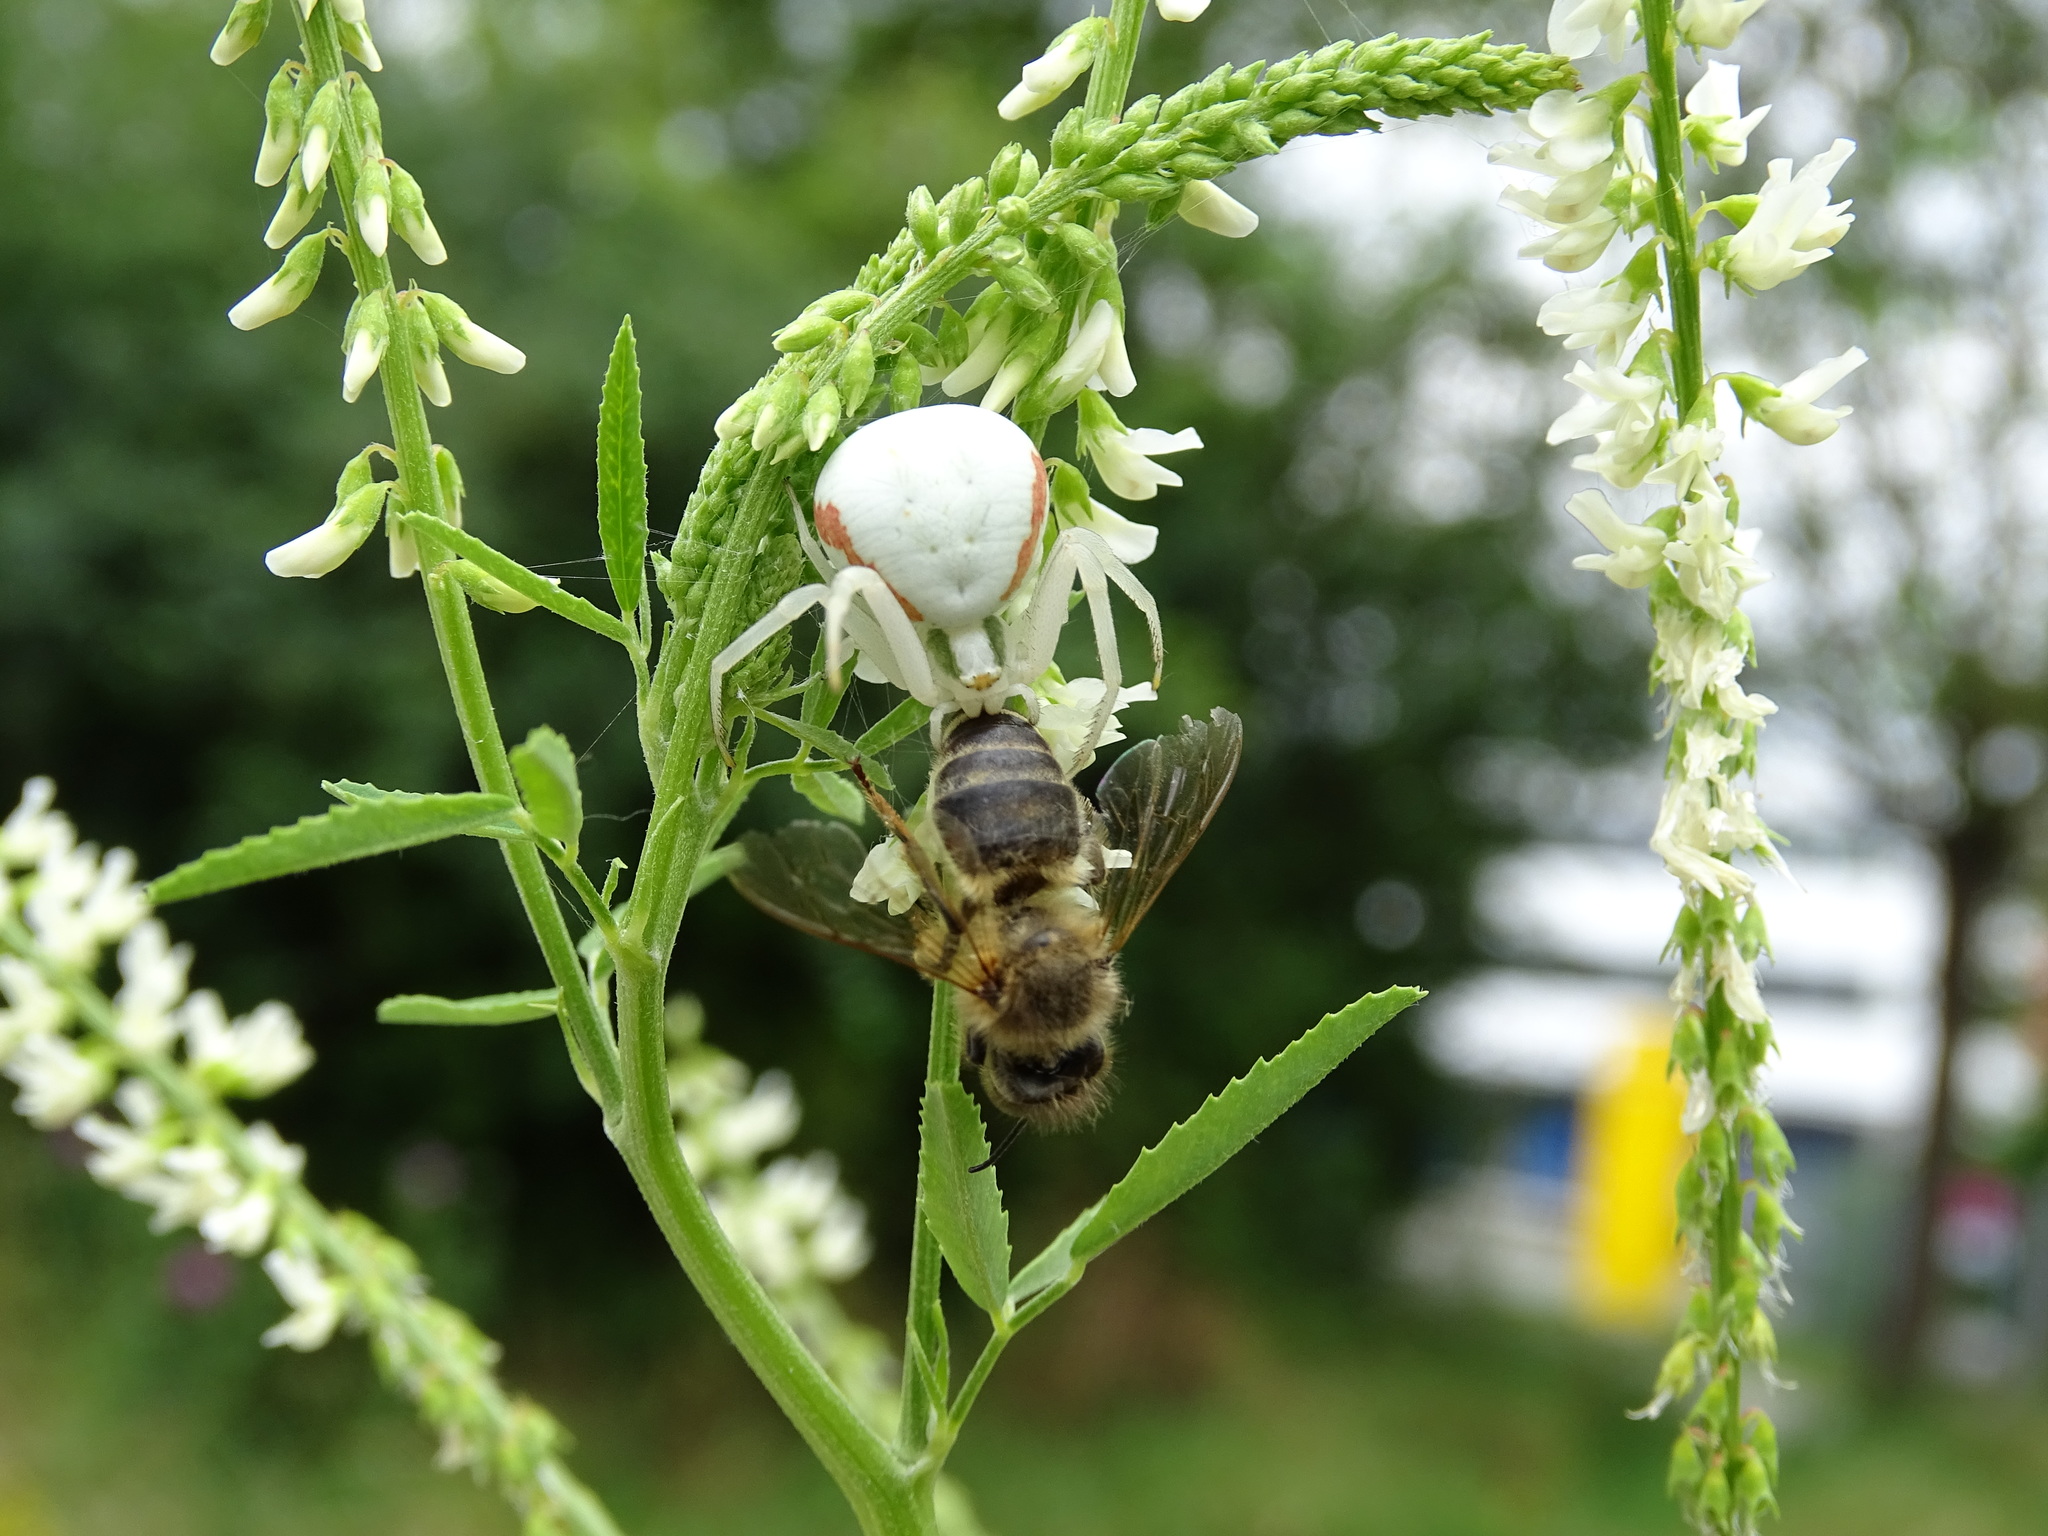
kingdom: Animalia
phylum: Arthropoda
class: Arachnida
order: Araneae
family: Thomisidae
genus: Misumena
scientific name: Misumena vatia
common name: Goldenrod crab spider
